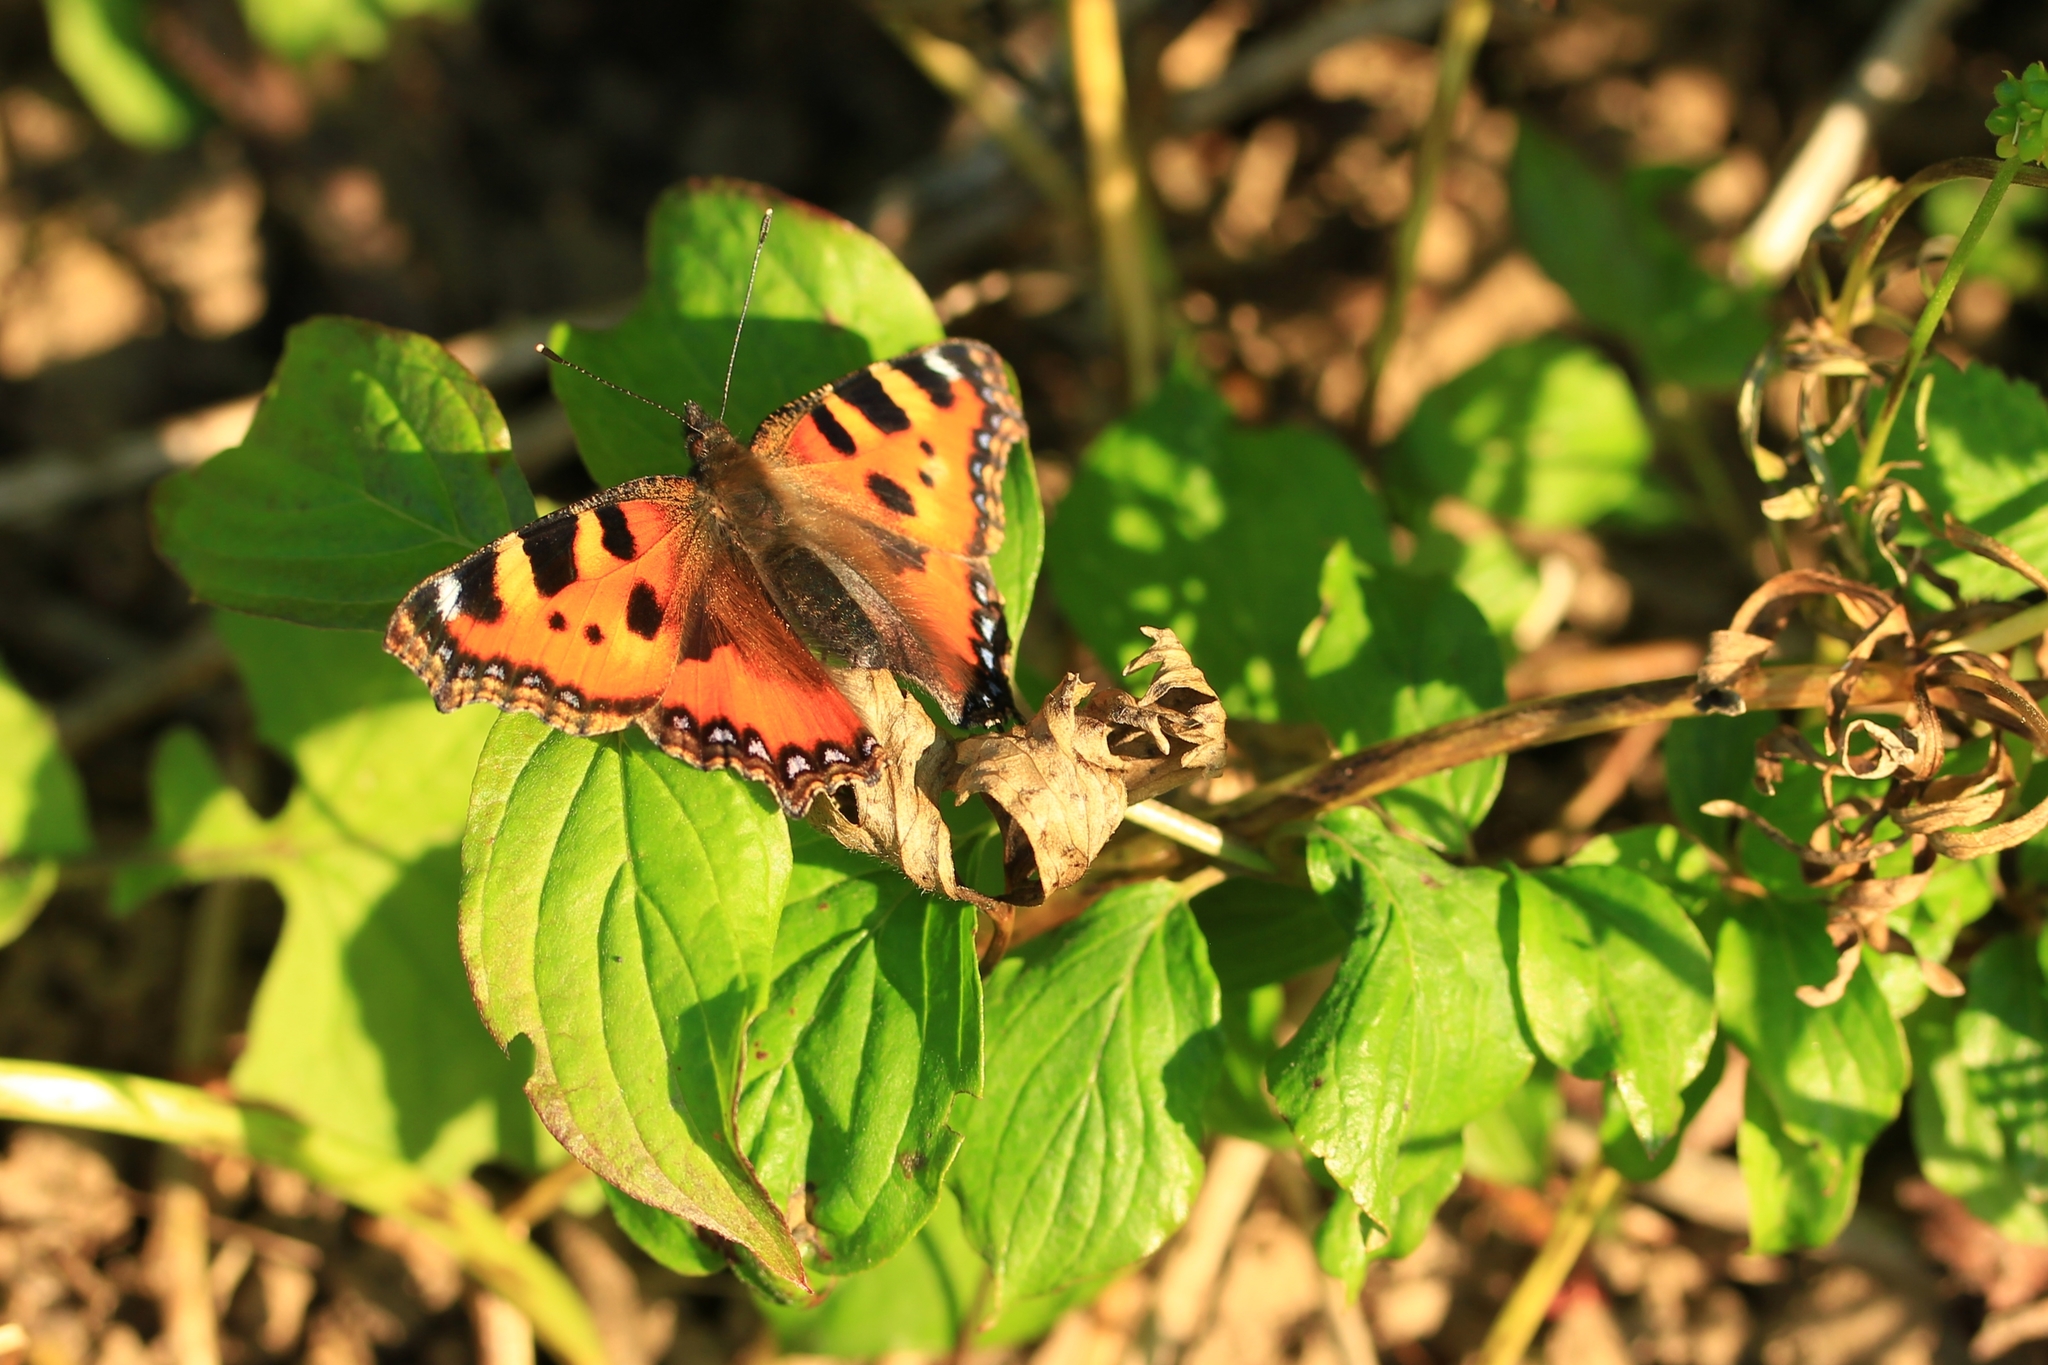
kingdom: Animalia
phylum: Arthropoda
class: Insecta
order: Lepidoptera
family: Nymphalidae
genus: Aglais
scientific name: Aglais urticae
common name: Small tortoiseshell
